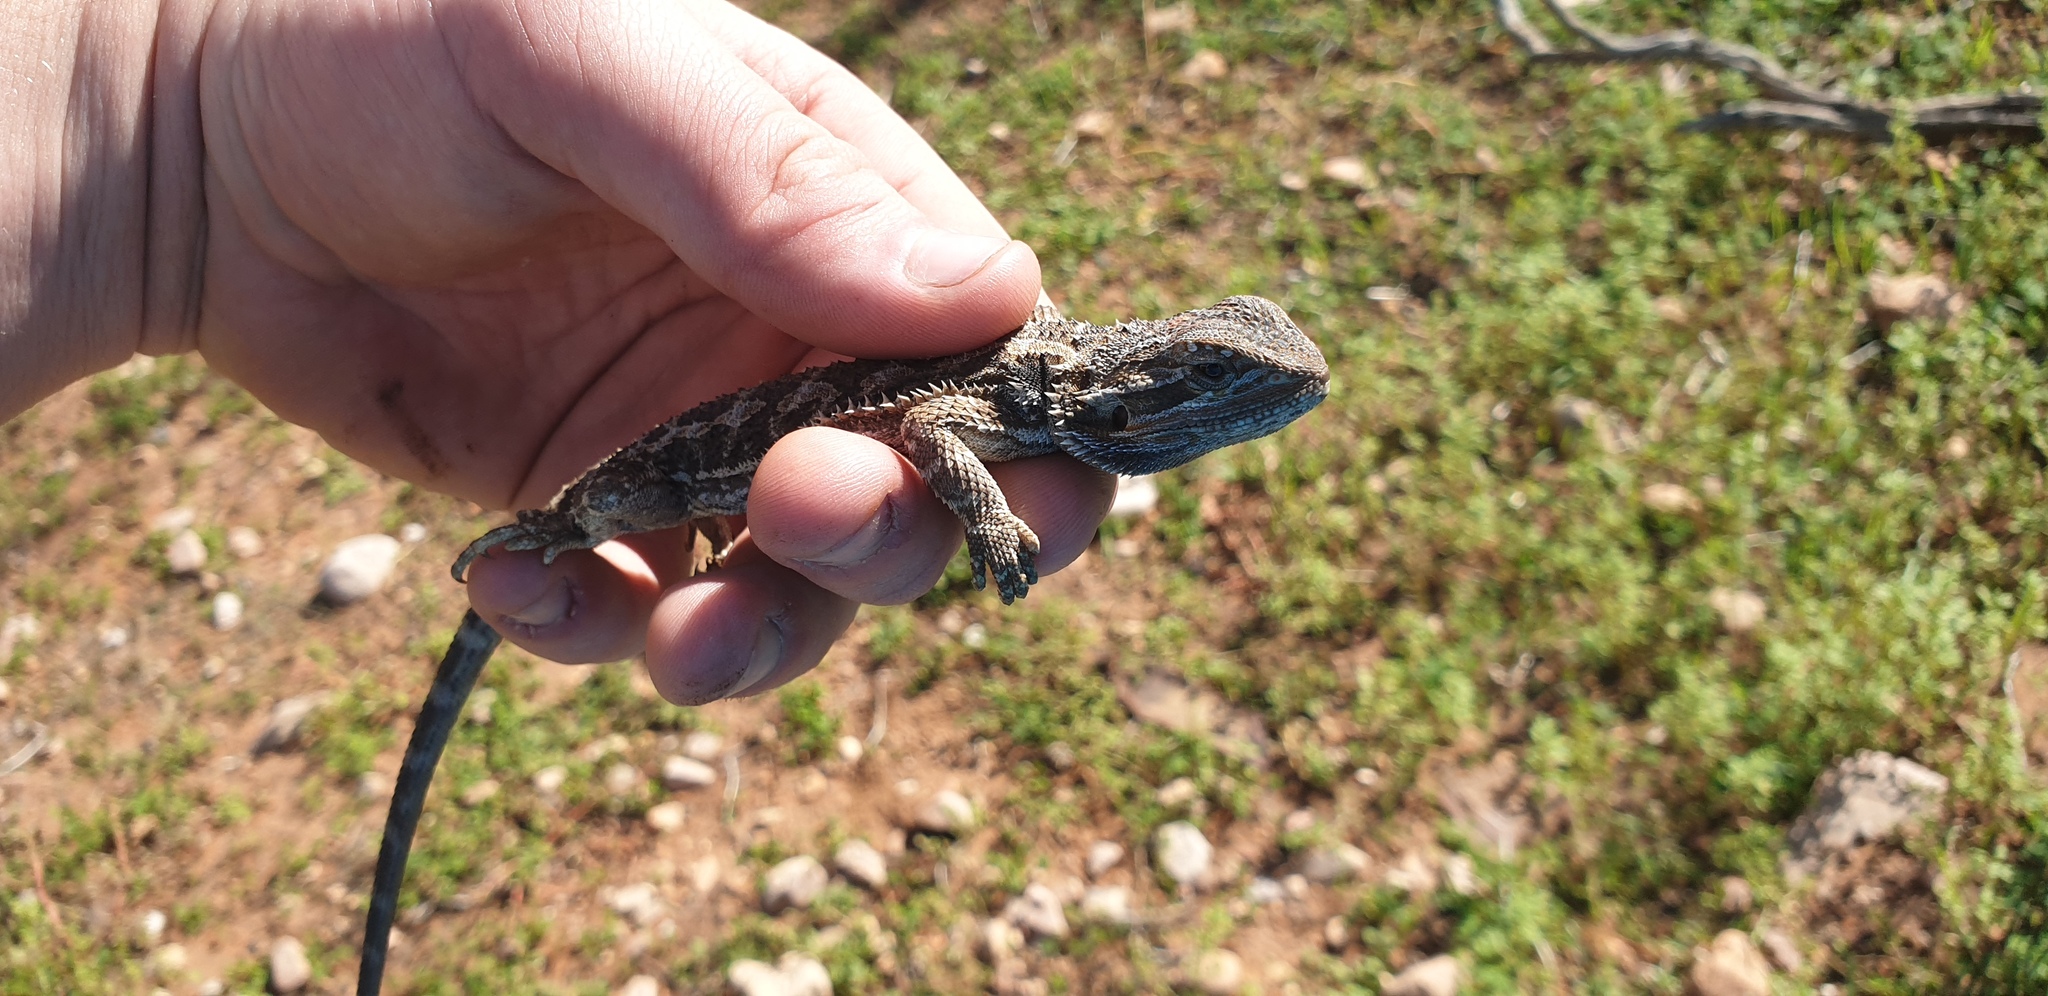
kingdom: Animalia
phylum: Chordata
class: Squamata
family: Agamidae
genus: Pogona
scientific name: Pogona vitticeps
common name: Central bearded dragon
